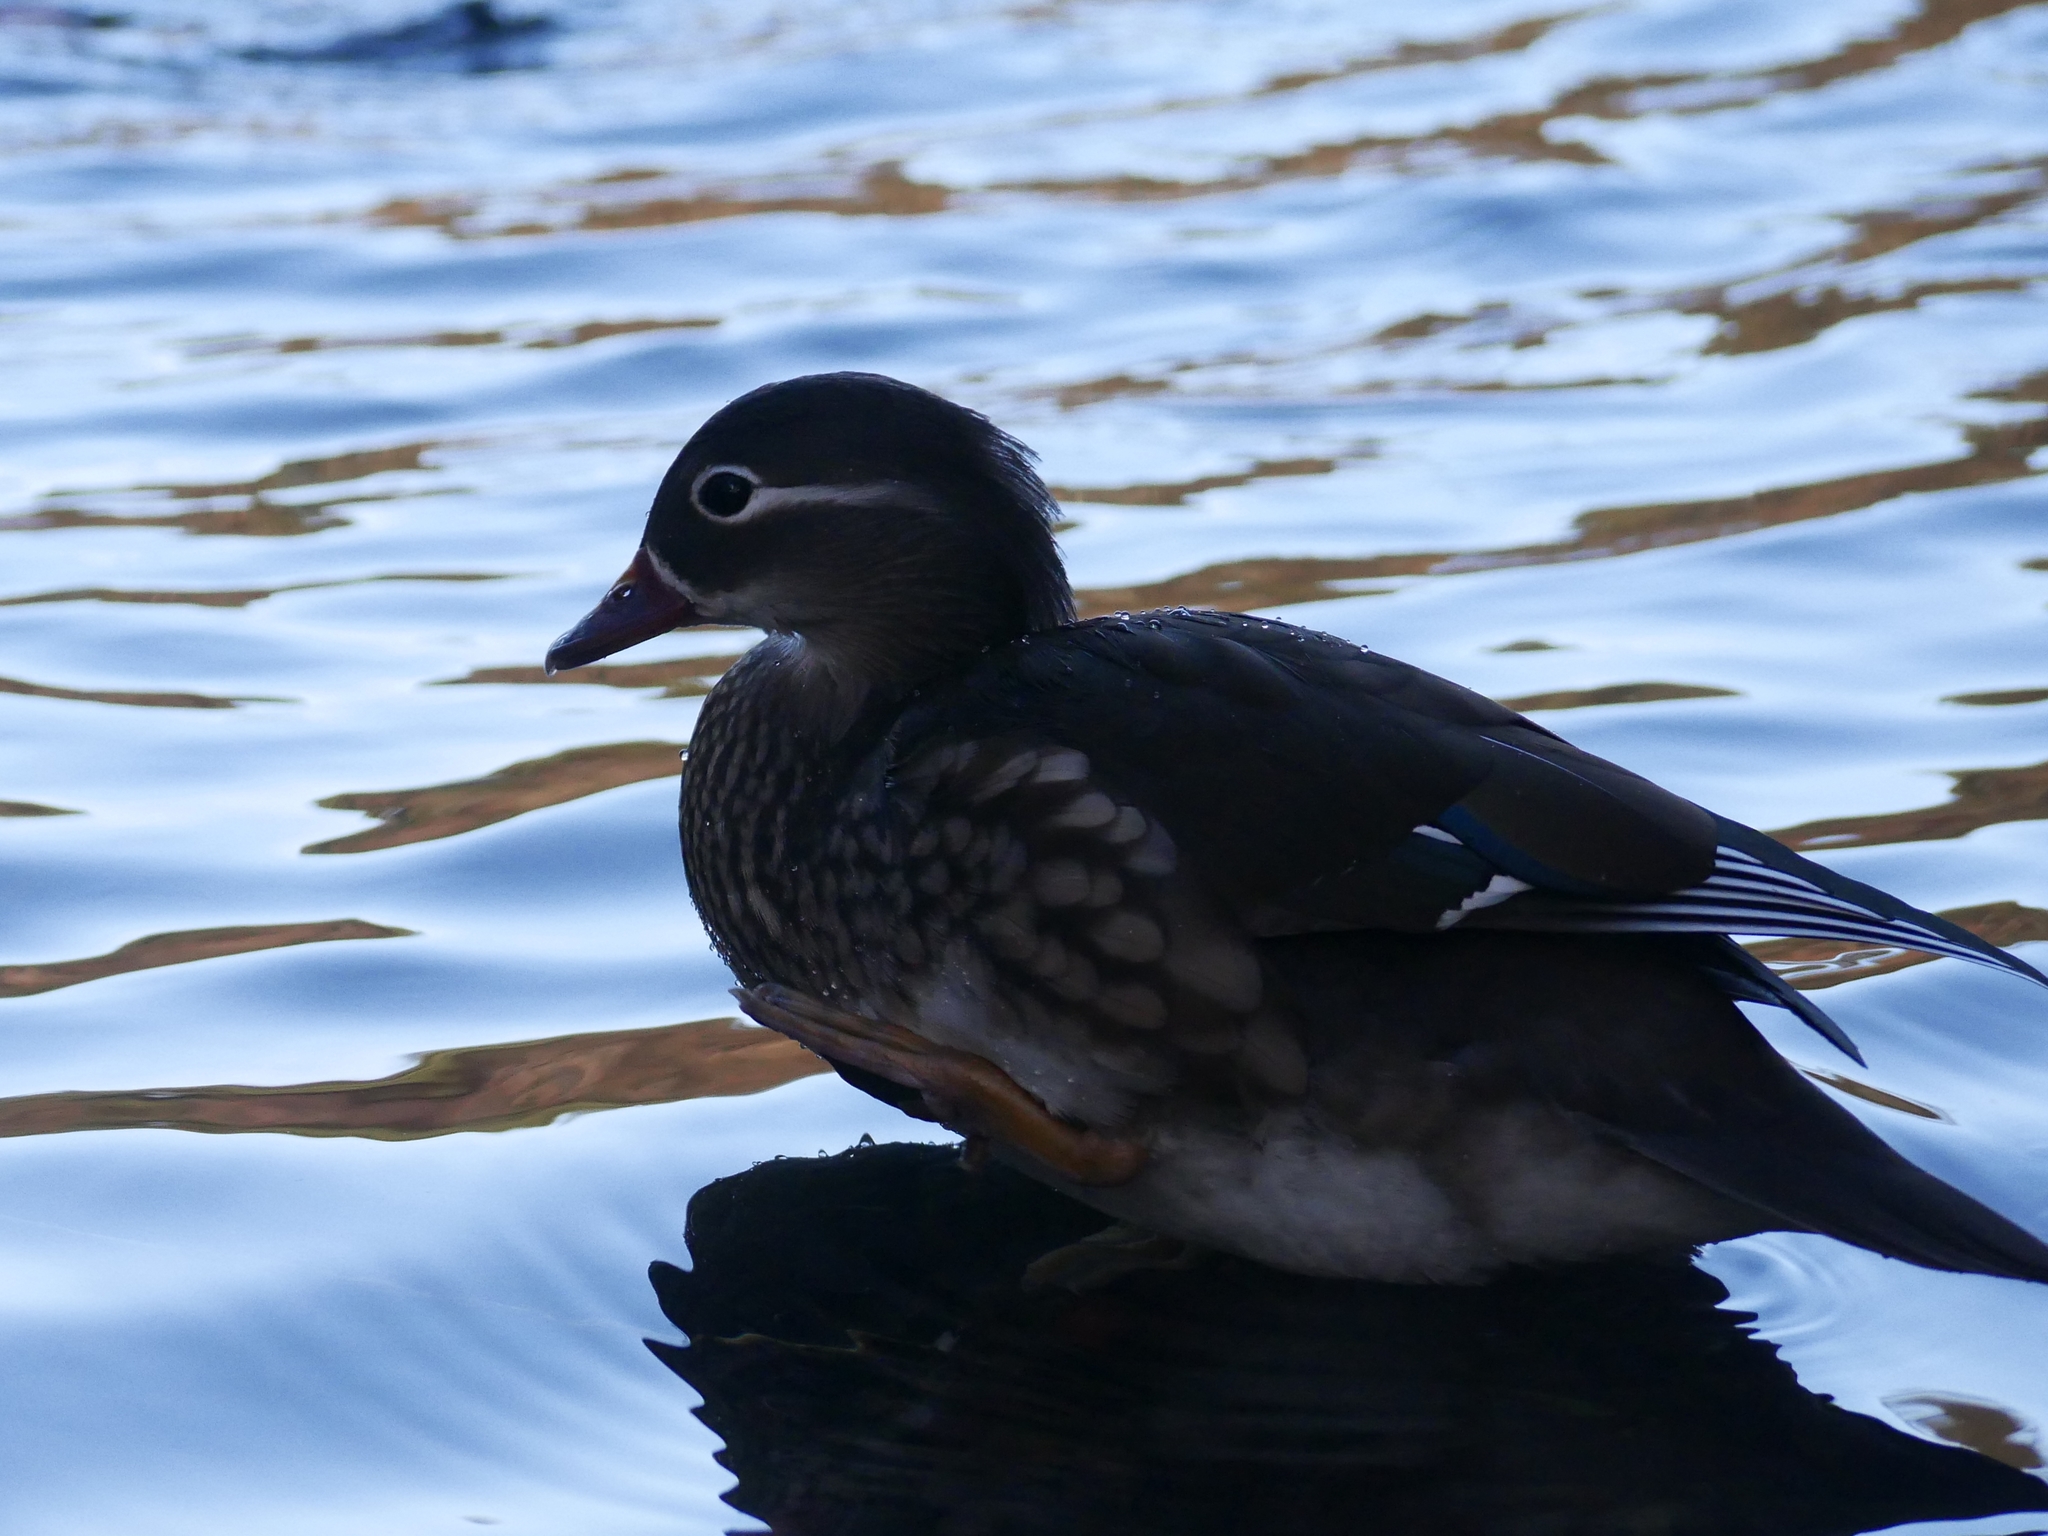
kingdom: Animalia
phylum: Chordata
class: Aves
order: Anseriformes
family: Anatidae
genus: Aix
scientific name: Aix galericulata
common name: Mandarin duck
